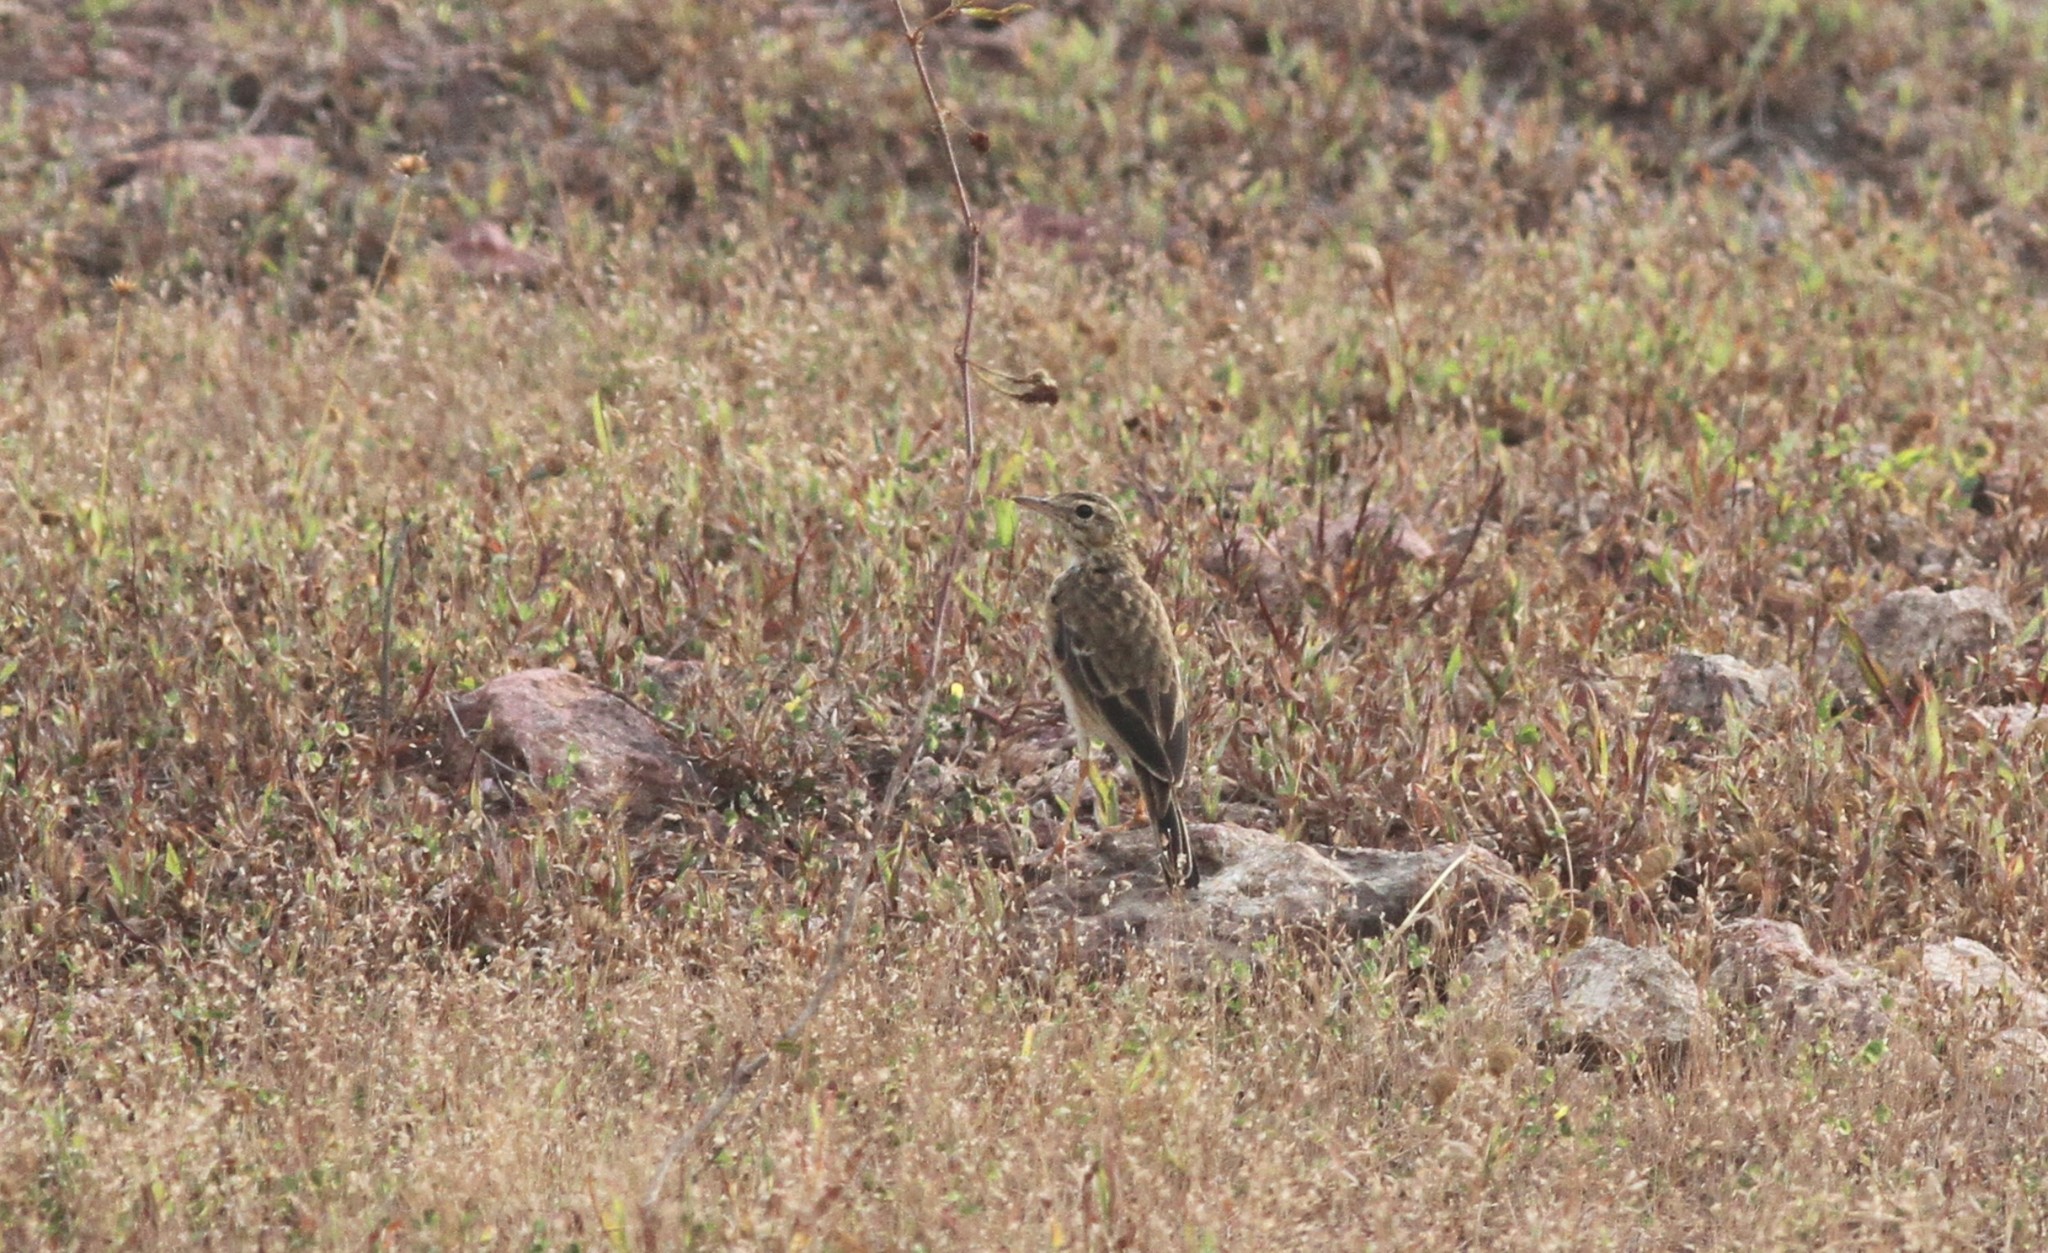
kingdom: Animalia
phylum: Chordata
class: Aves
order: Passeriformes
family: Motacillidae
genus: Anthus
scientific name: Anthus rufulus
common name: Paddyfield pipit
